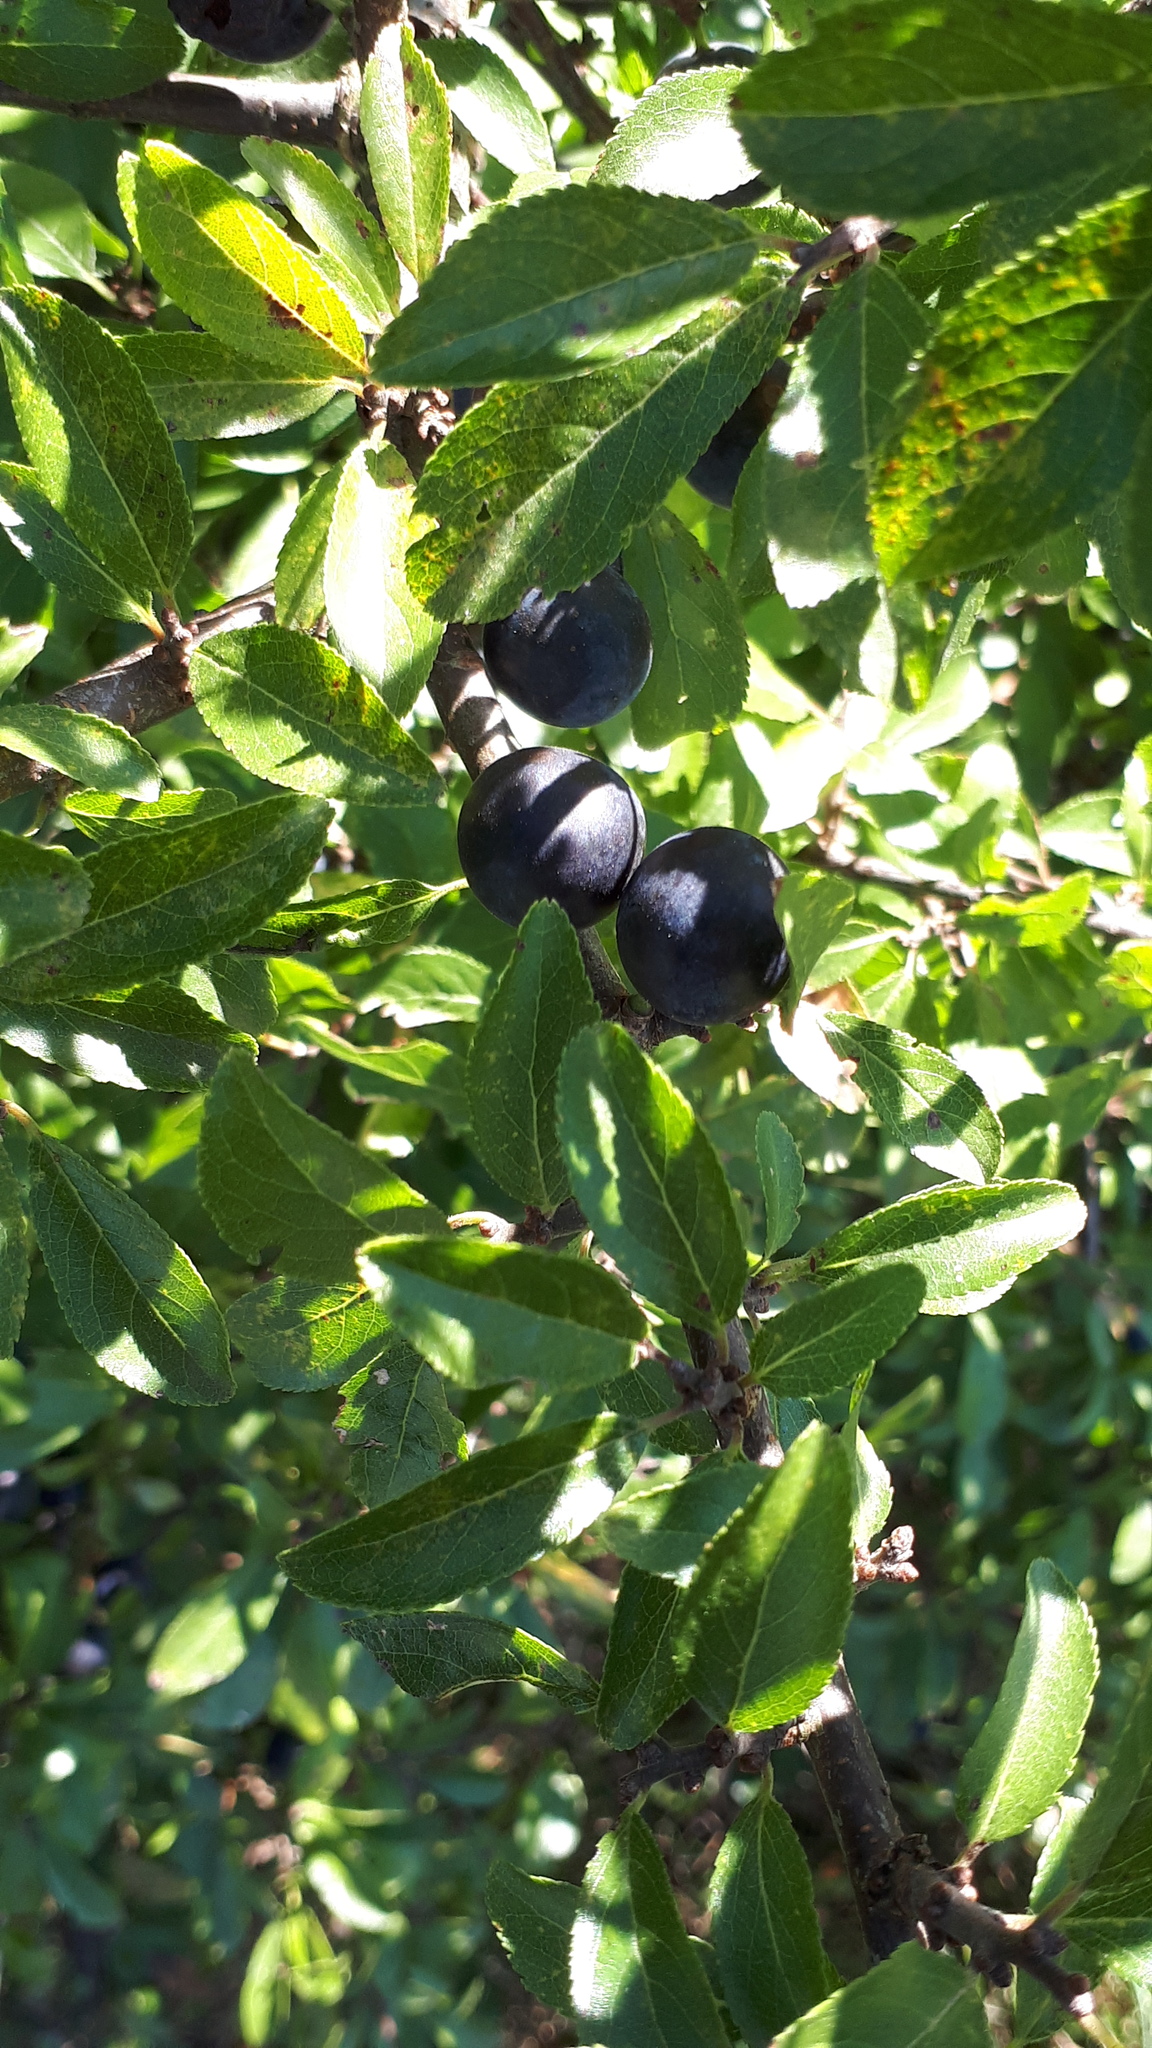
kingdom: Plantae
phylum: Tracheophyta
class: Magnoliopsida
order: Rosales
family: Rosaceae
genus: Prunus
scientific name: Prunus spinosa
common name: Blackthorn
